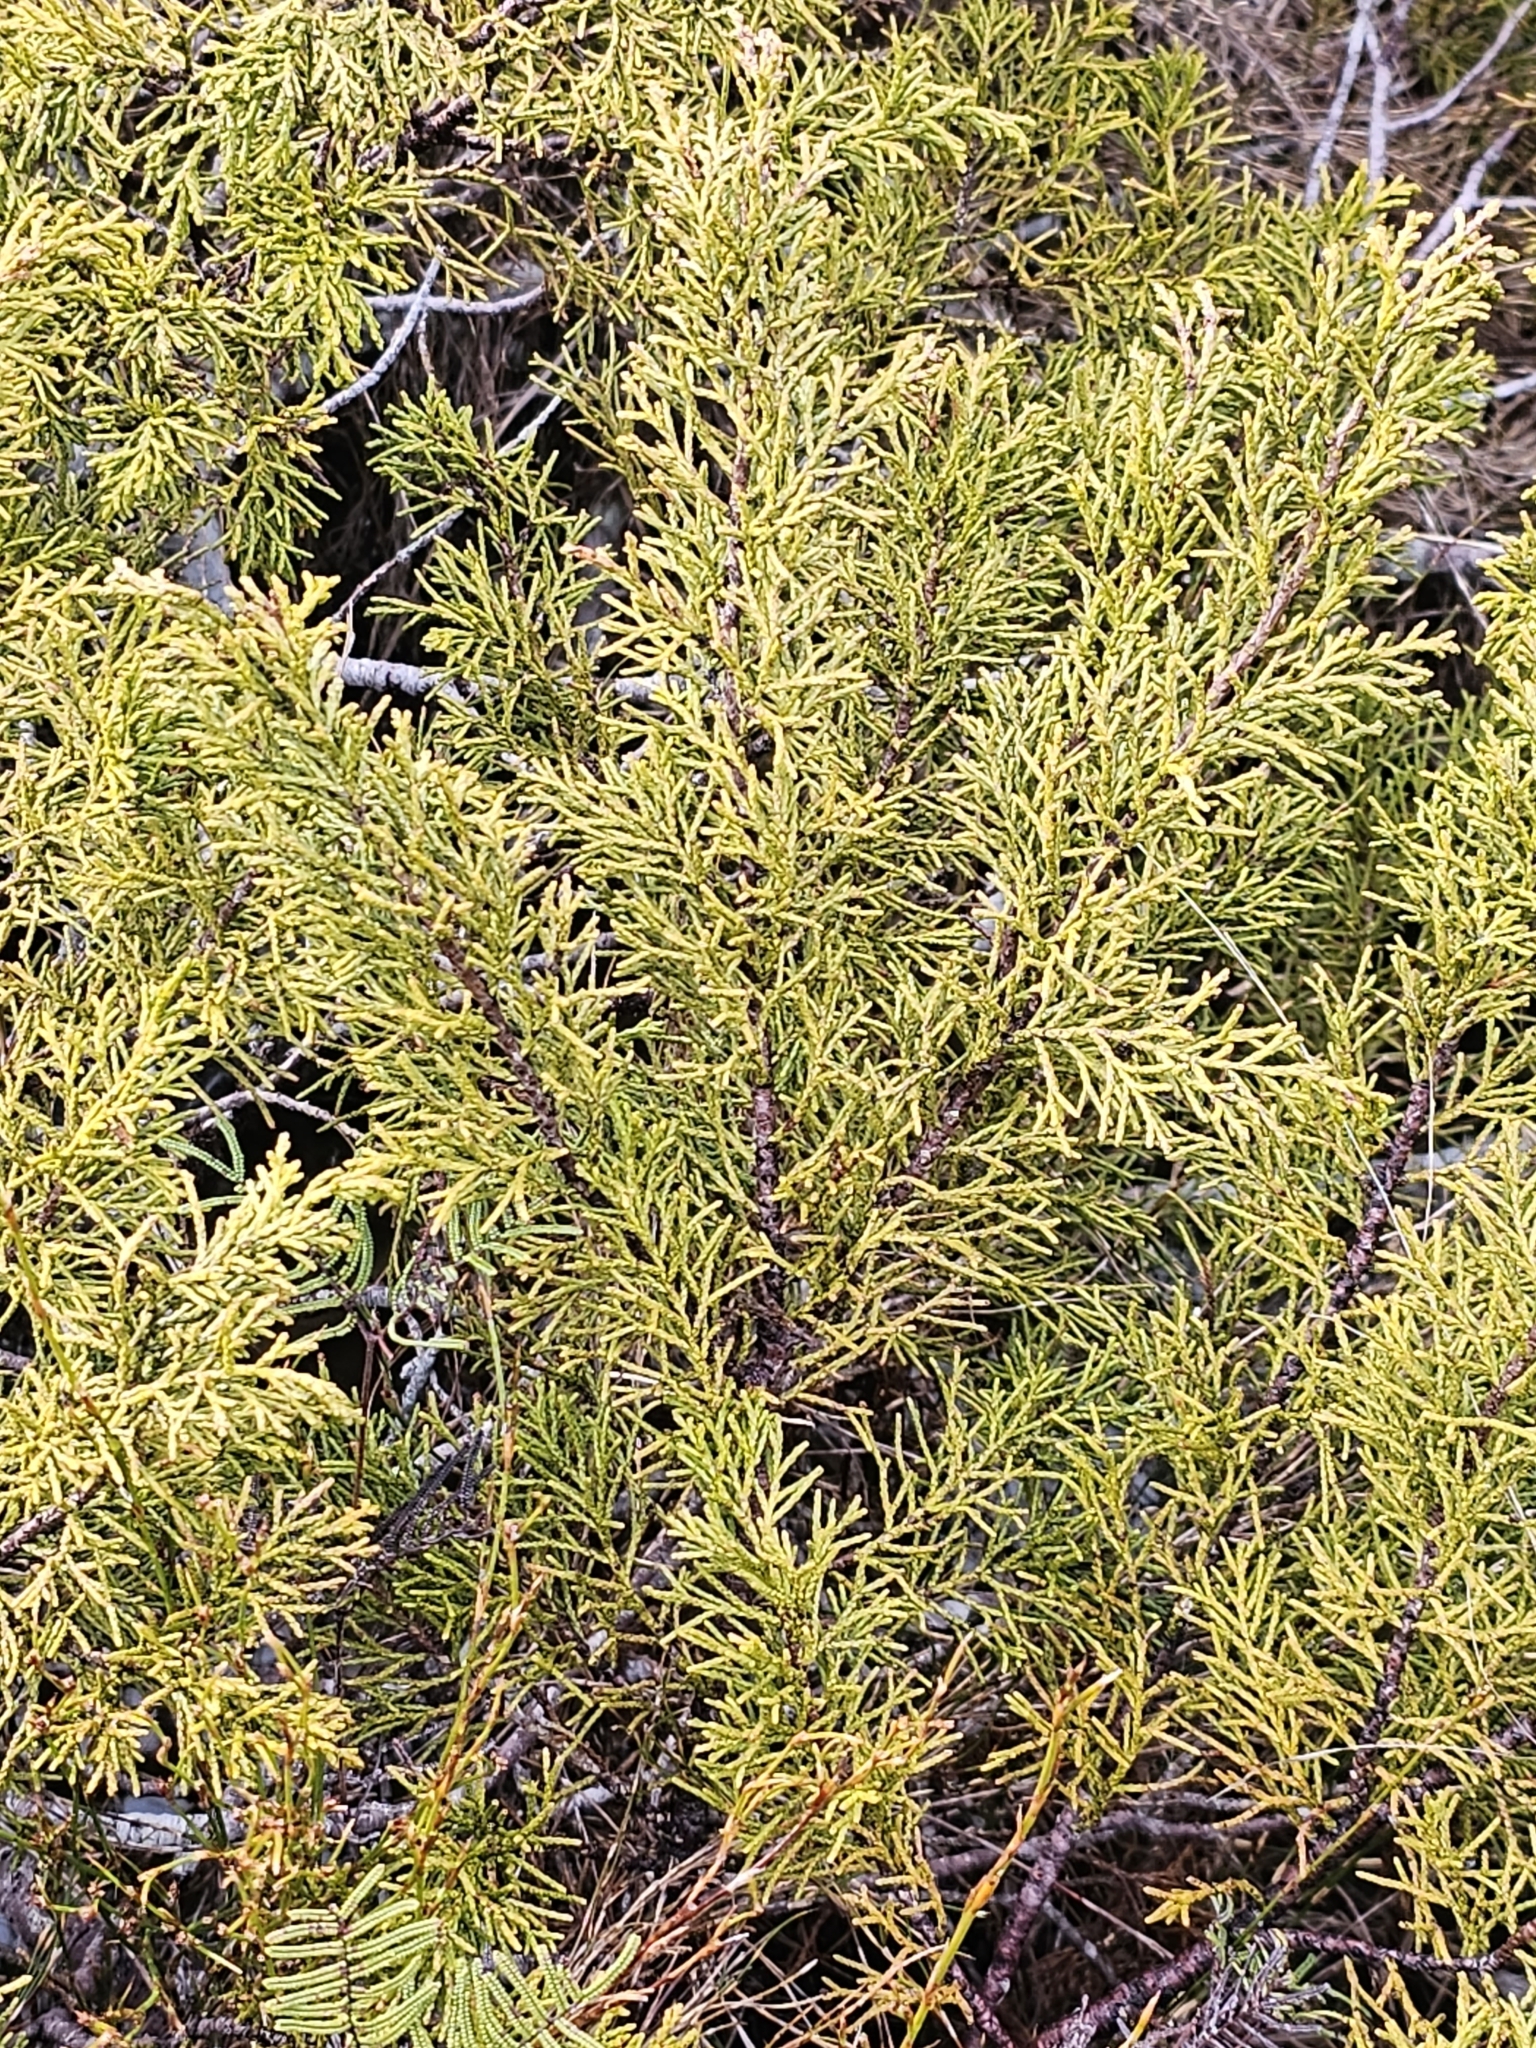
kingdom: Plantae
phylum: Tracheophyta
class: Pinopsida
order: Pinales
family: Podocarpaceae
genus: Halocarpus
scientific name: Halocarpus bidwillii
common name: Bog pine
